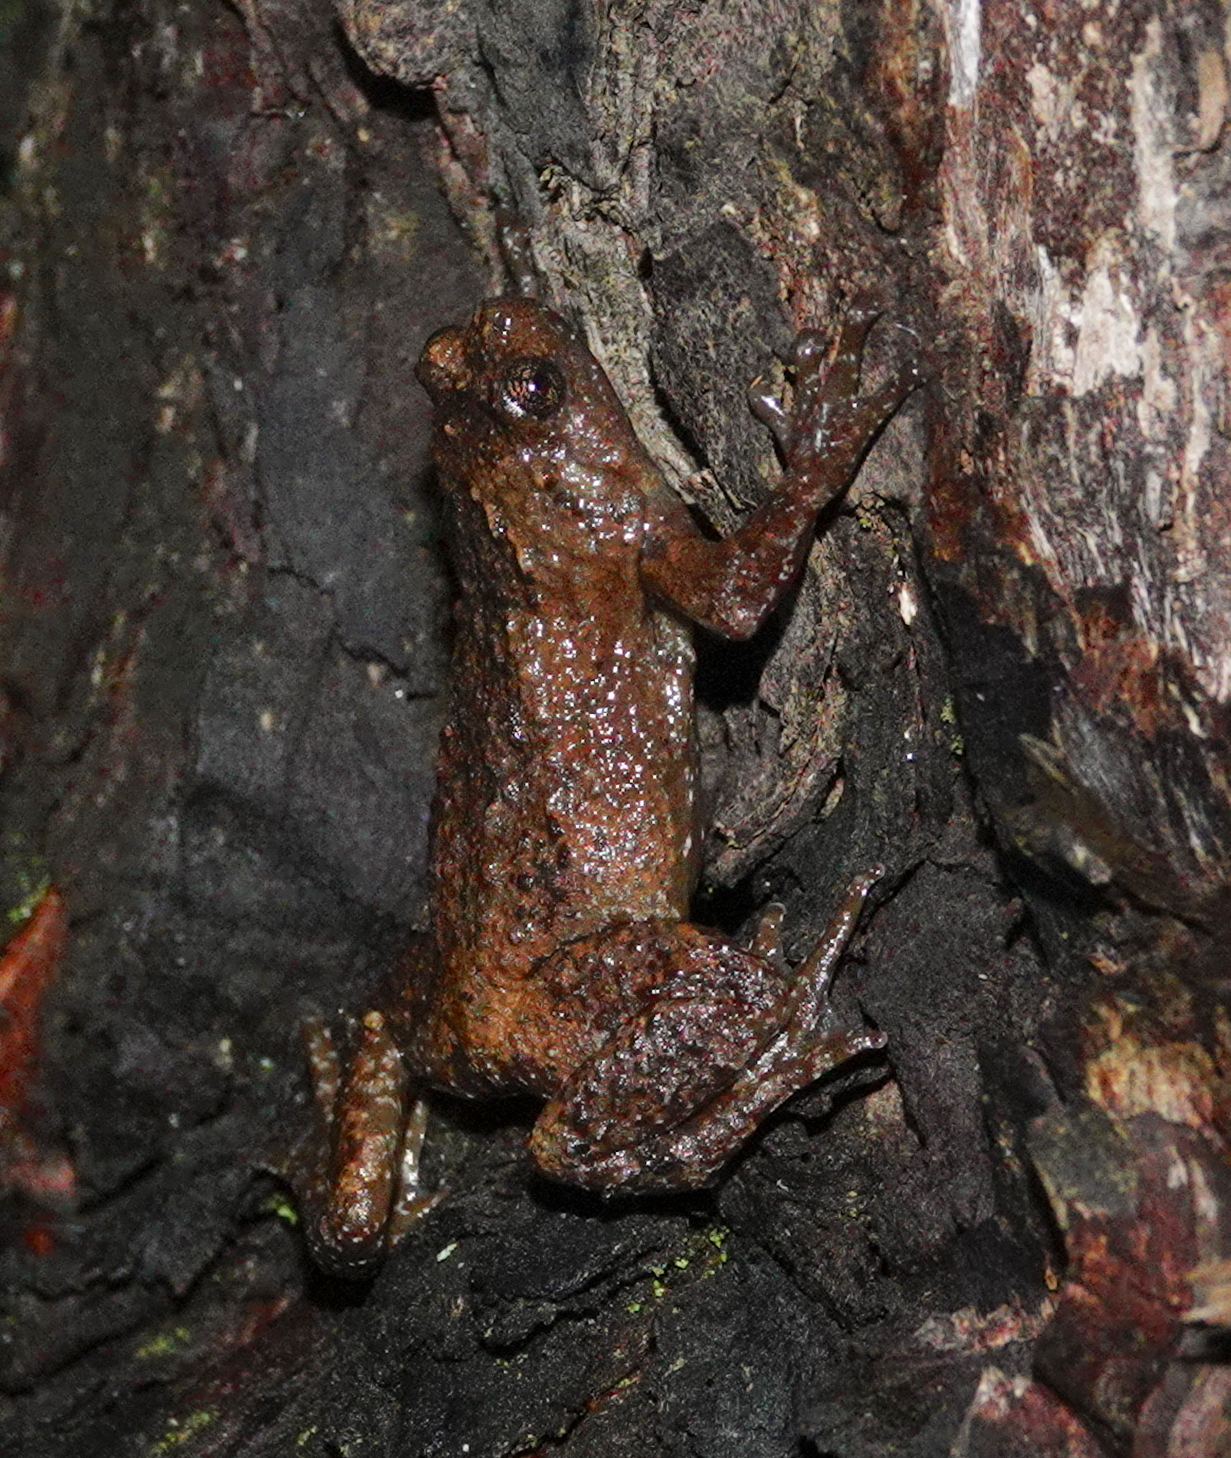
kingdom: Animalia
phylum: Chordata
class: Amphibia
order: Anura
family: Microhylidae
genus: Uperodon
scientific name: Uperodon palmatus
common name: Half-webbed pug-snout frog
